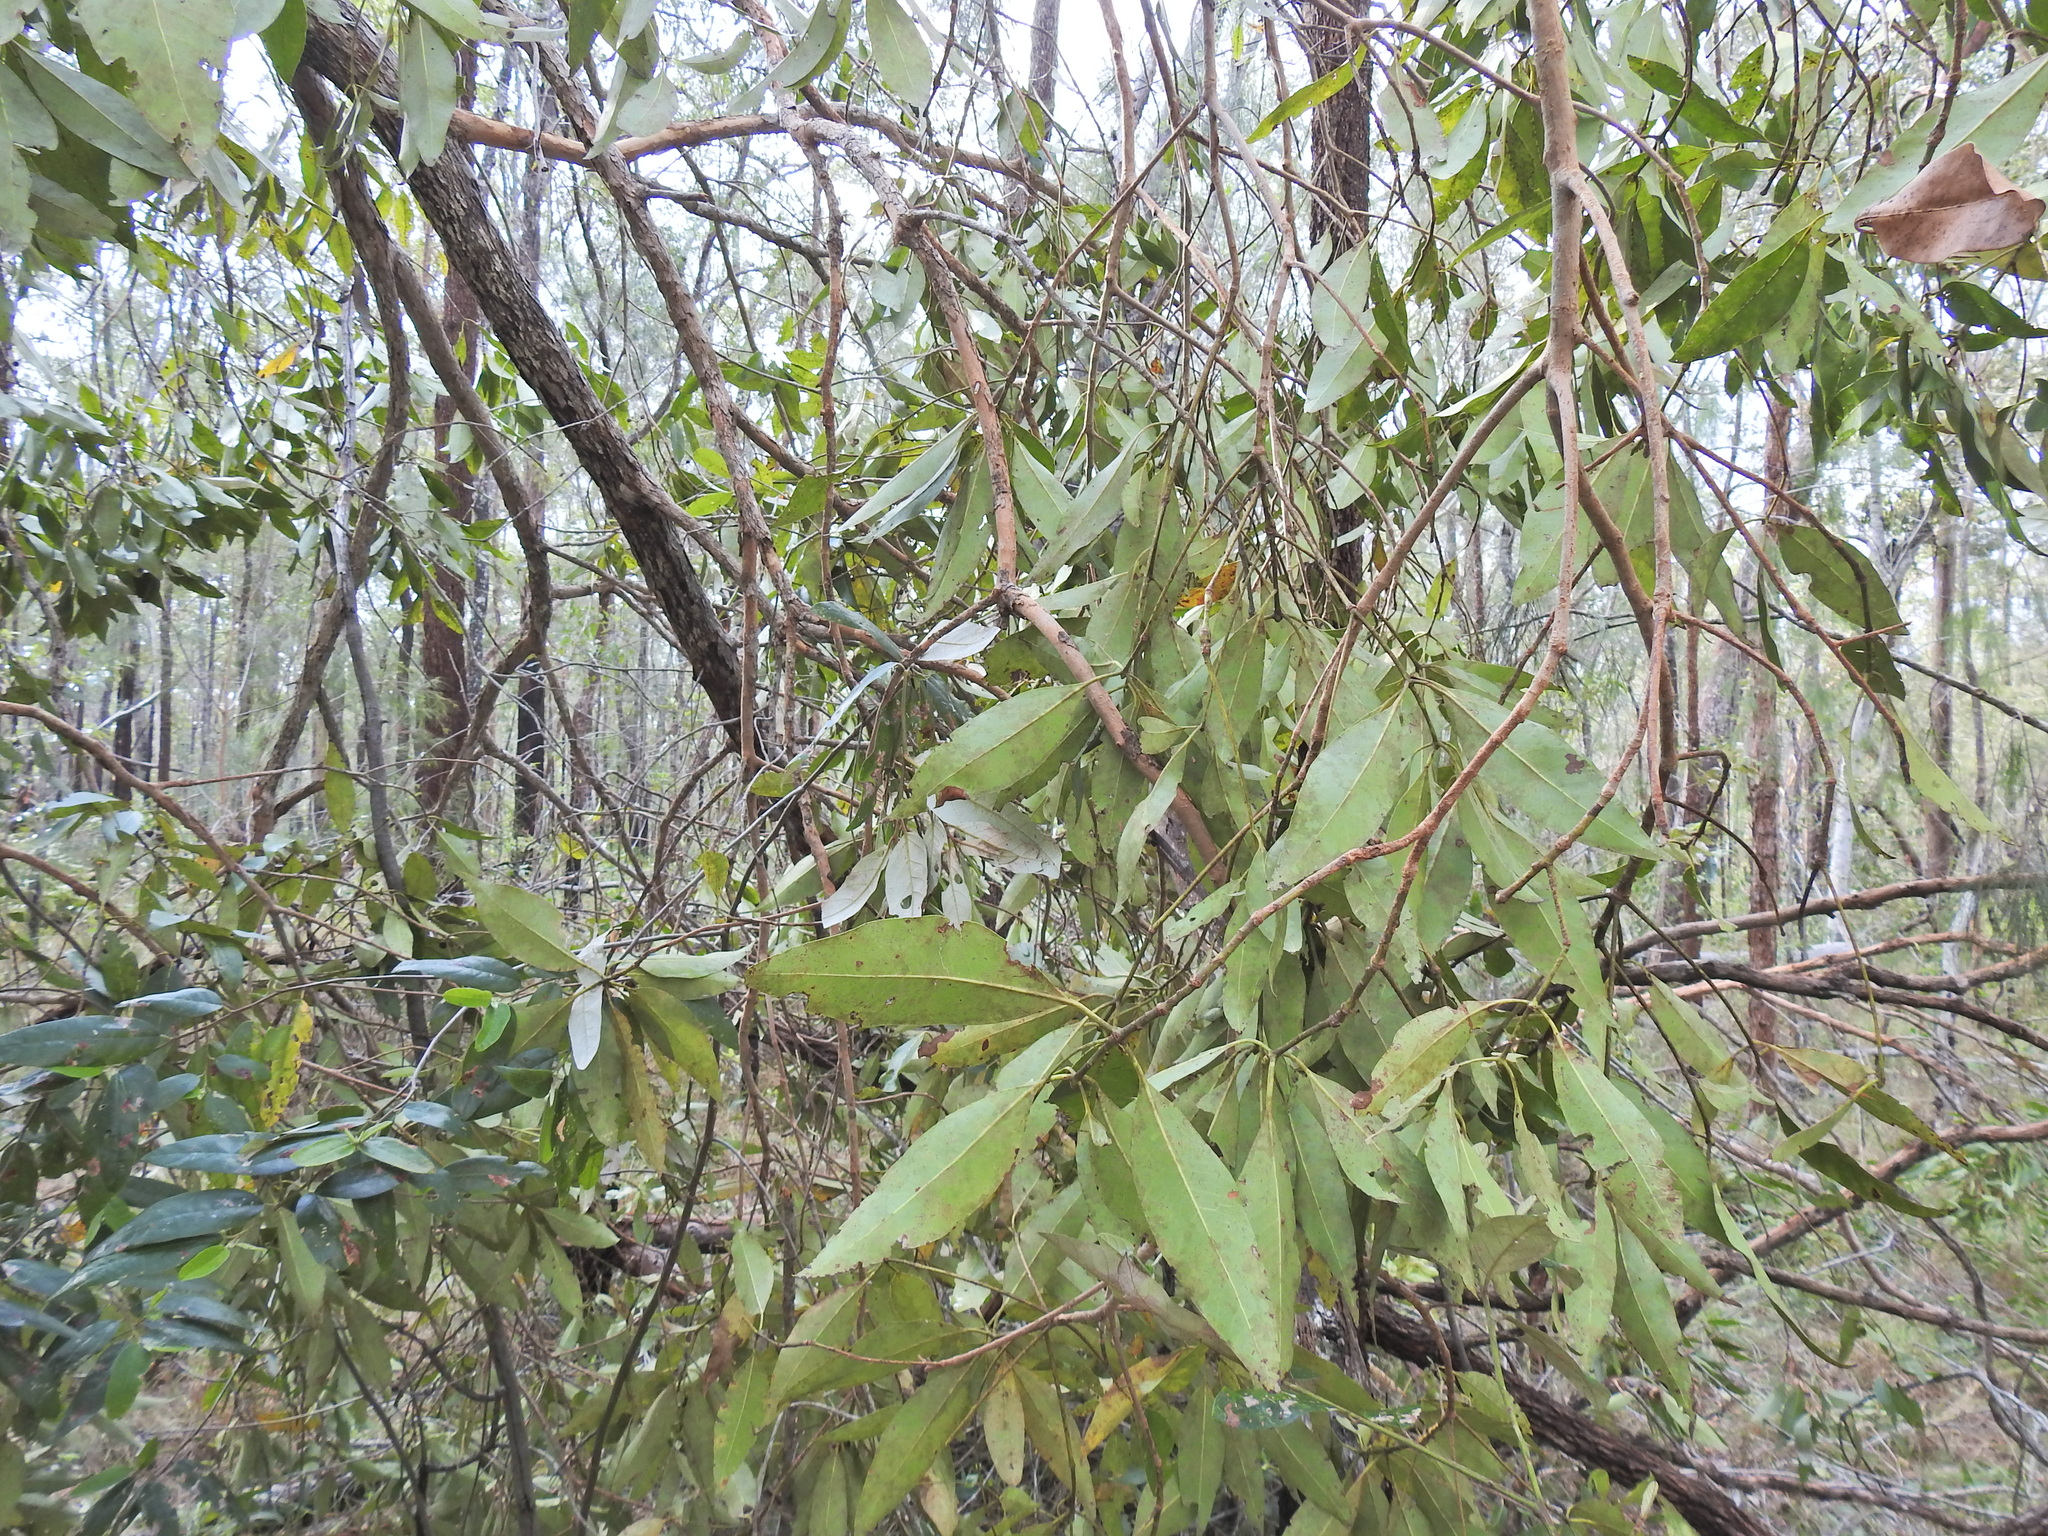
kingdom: Plantae
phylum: Tracheophyta
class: Magnoliopsida
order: Myrtales
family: Myrtaceae
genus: Lophostemon
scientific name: Lophostemon confertus
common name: Brisbane box
